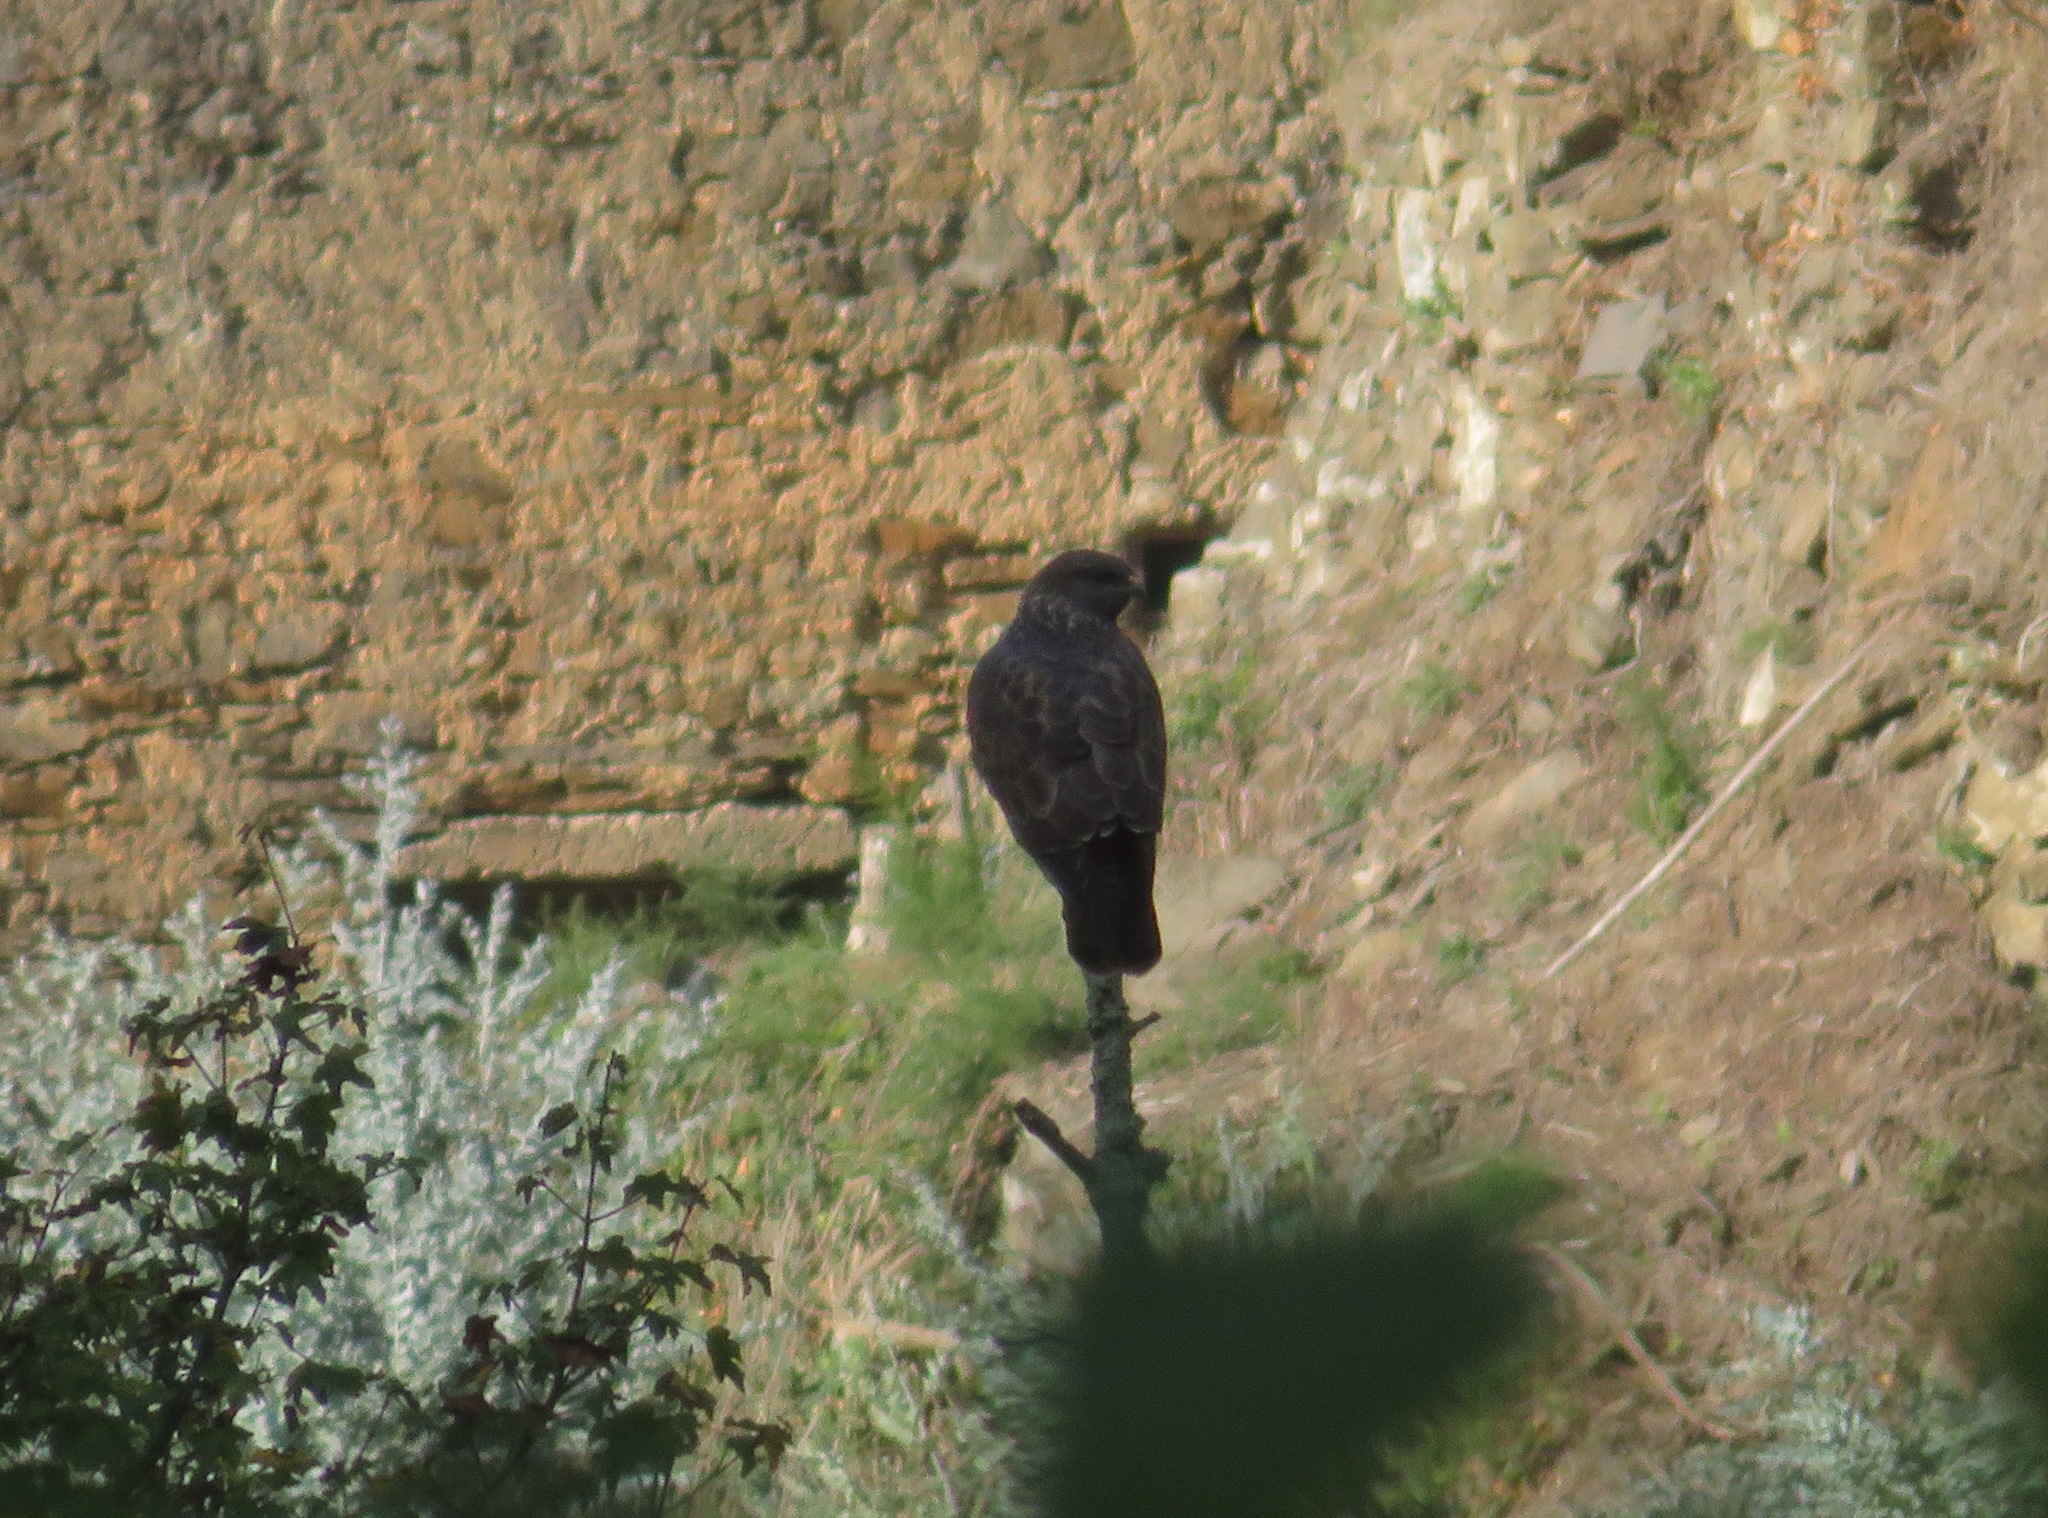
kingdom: Animalia
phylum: Chordata
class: Aves
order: Accipitriformes
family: Accipitridae
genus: Buteo
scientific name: Buteo buteo
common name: Common buzzard
